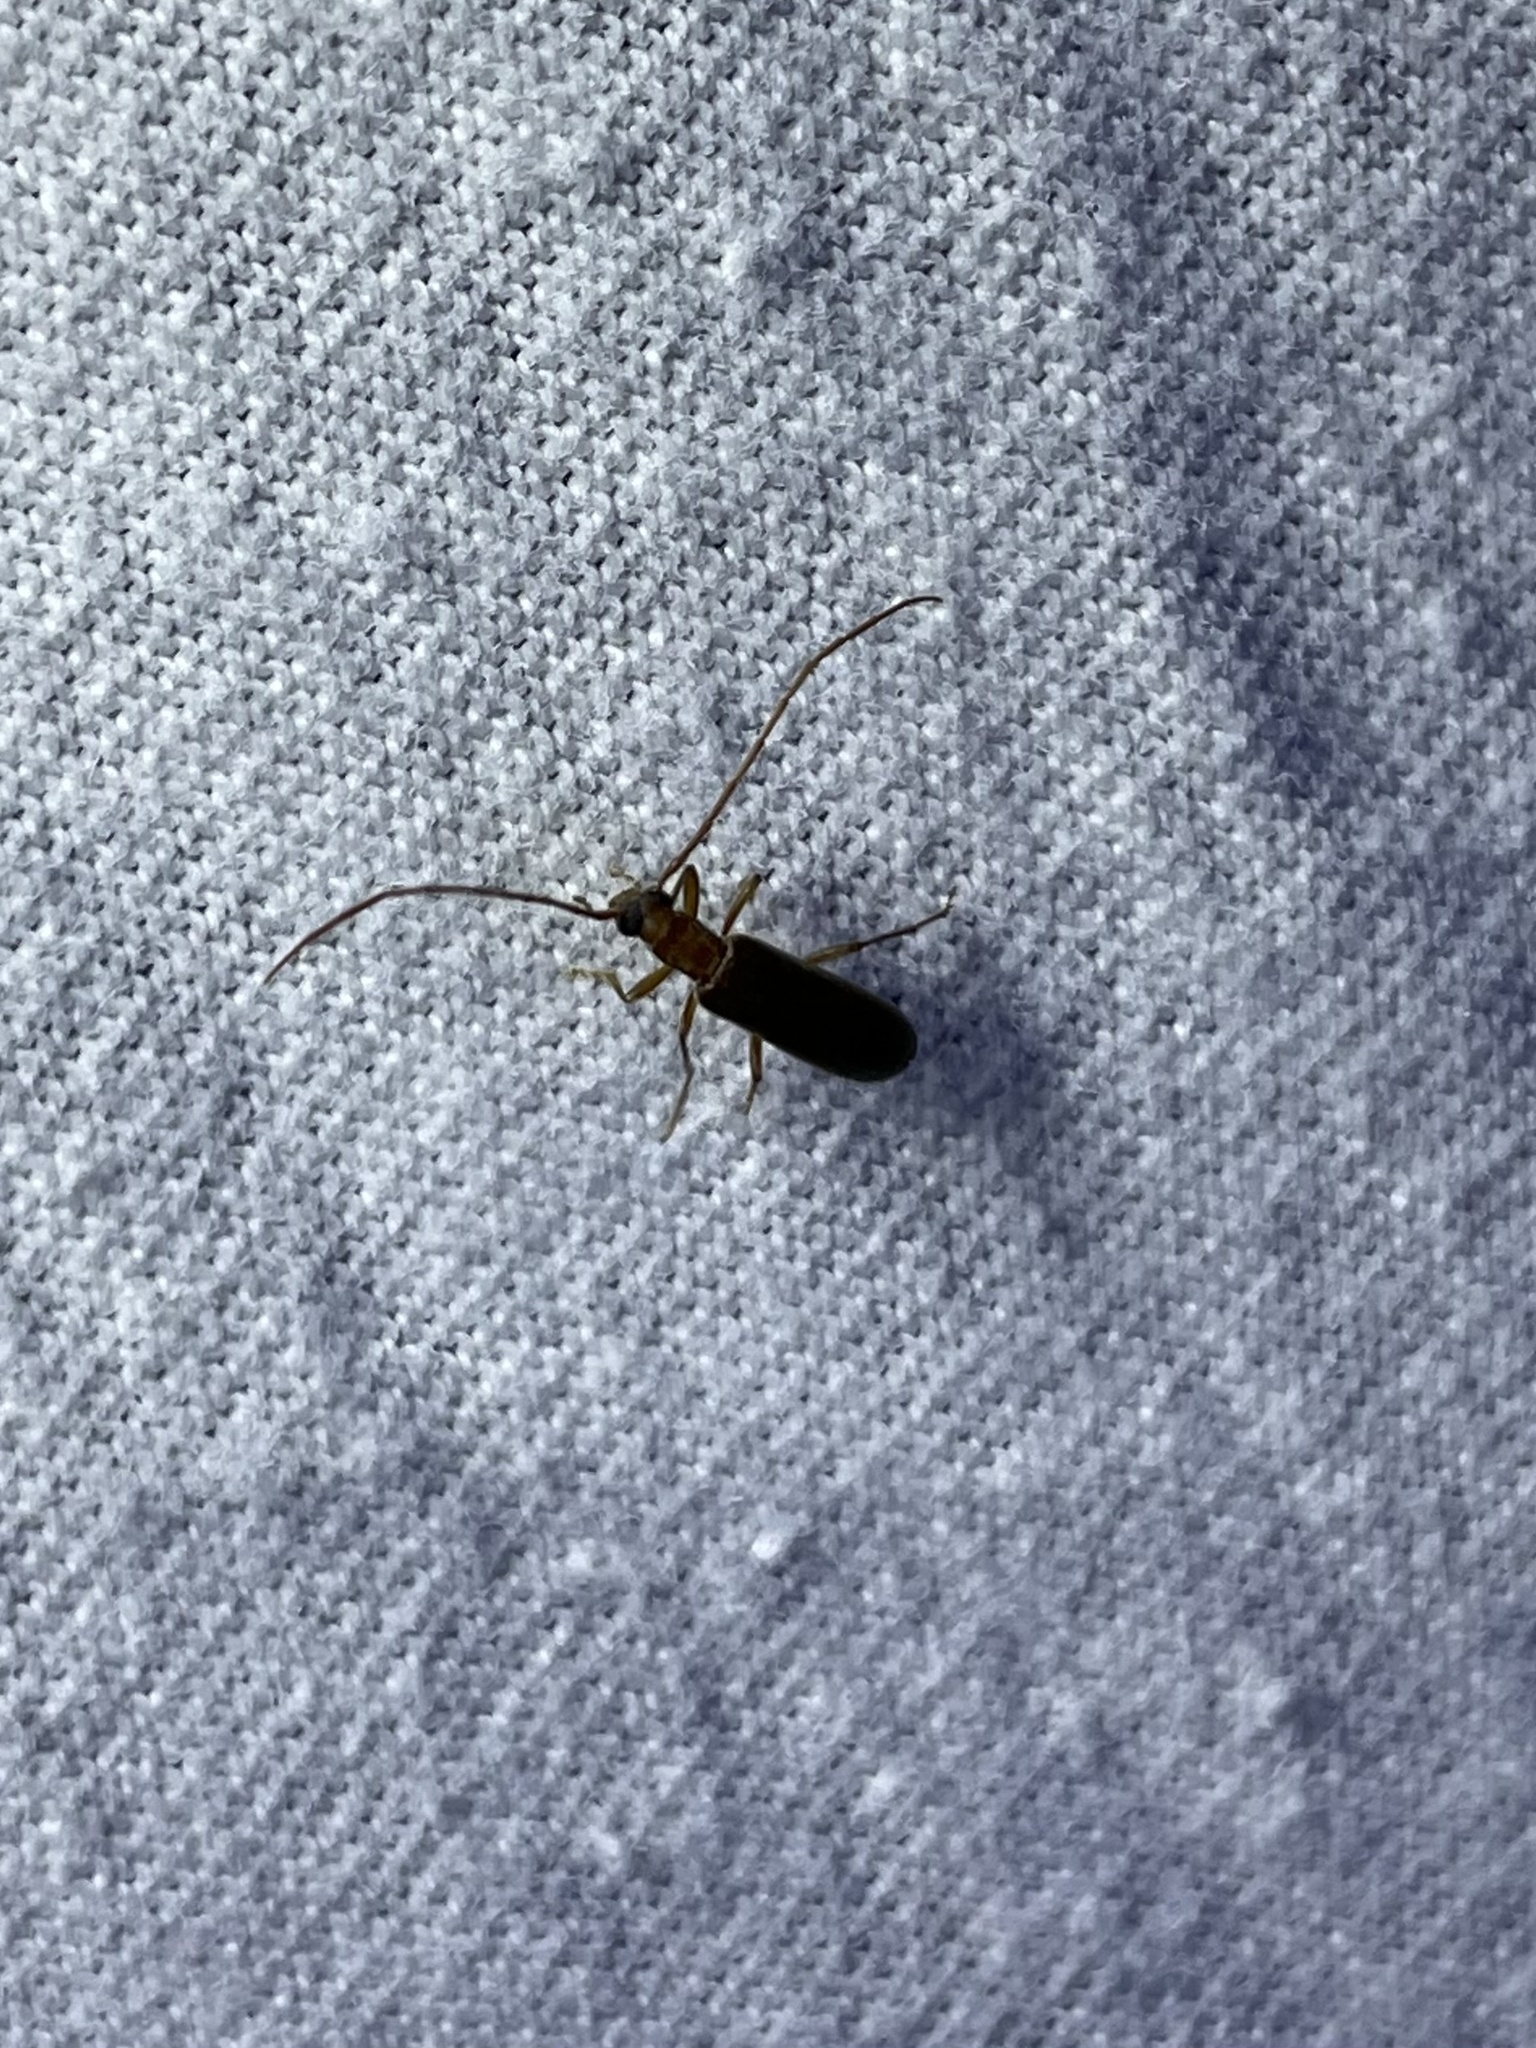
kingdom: Animalia
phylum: Arthropoda
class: Insecta
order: Coleoptera
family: Oedemeridae
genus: Sparedrus
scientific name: Sparedrus aspersus
